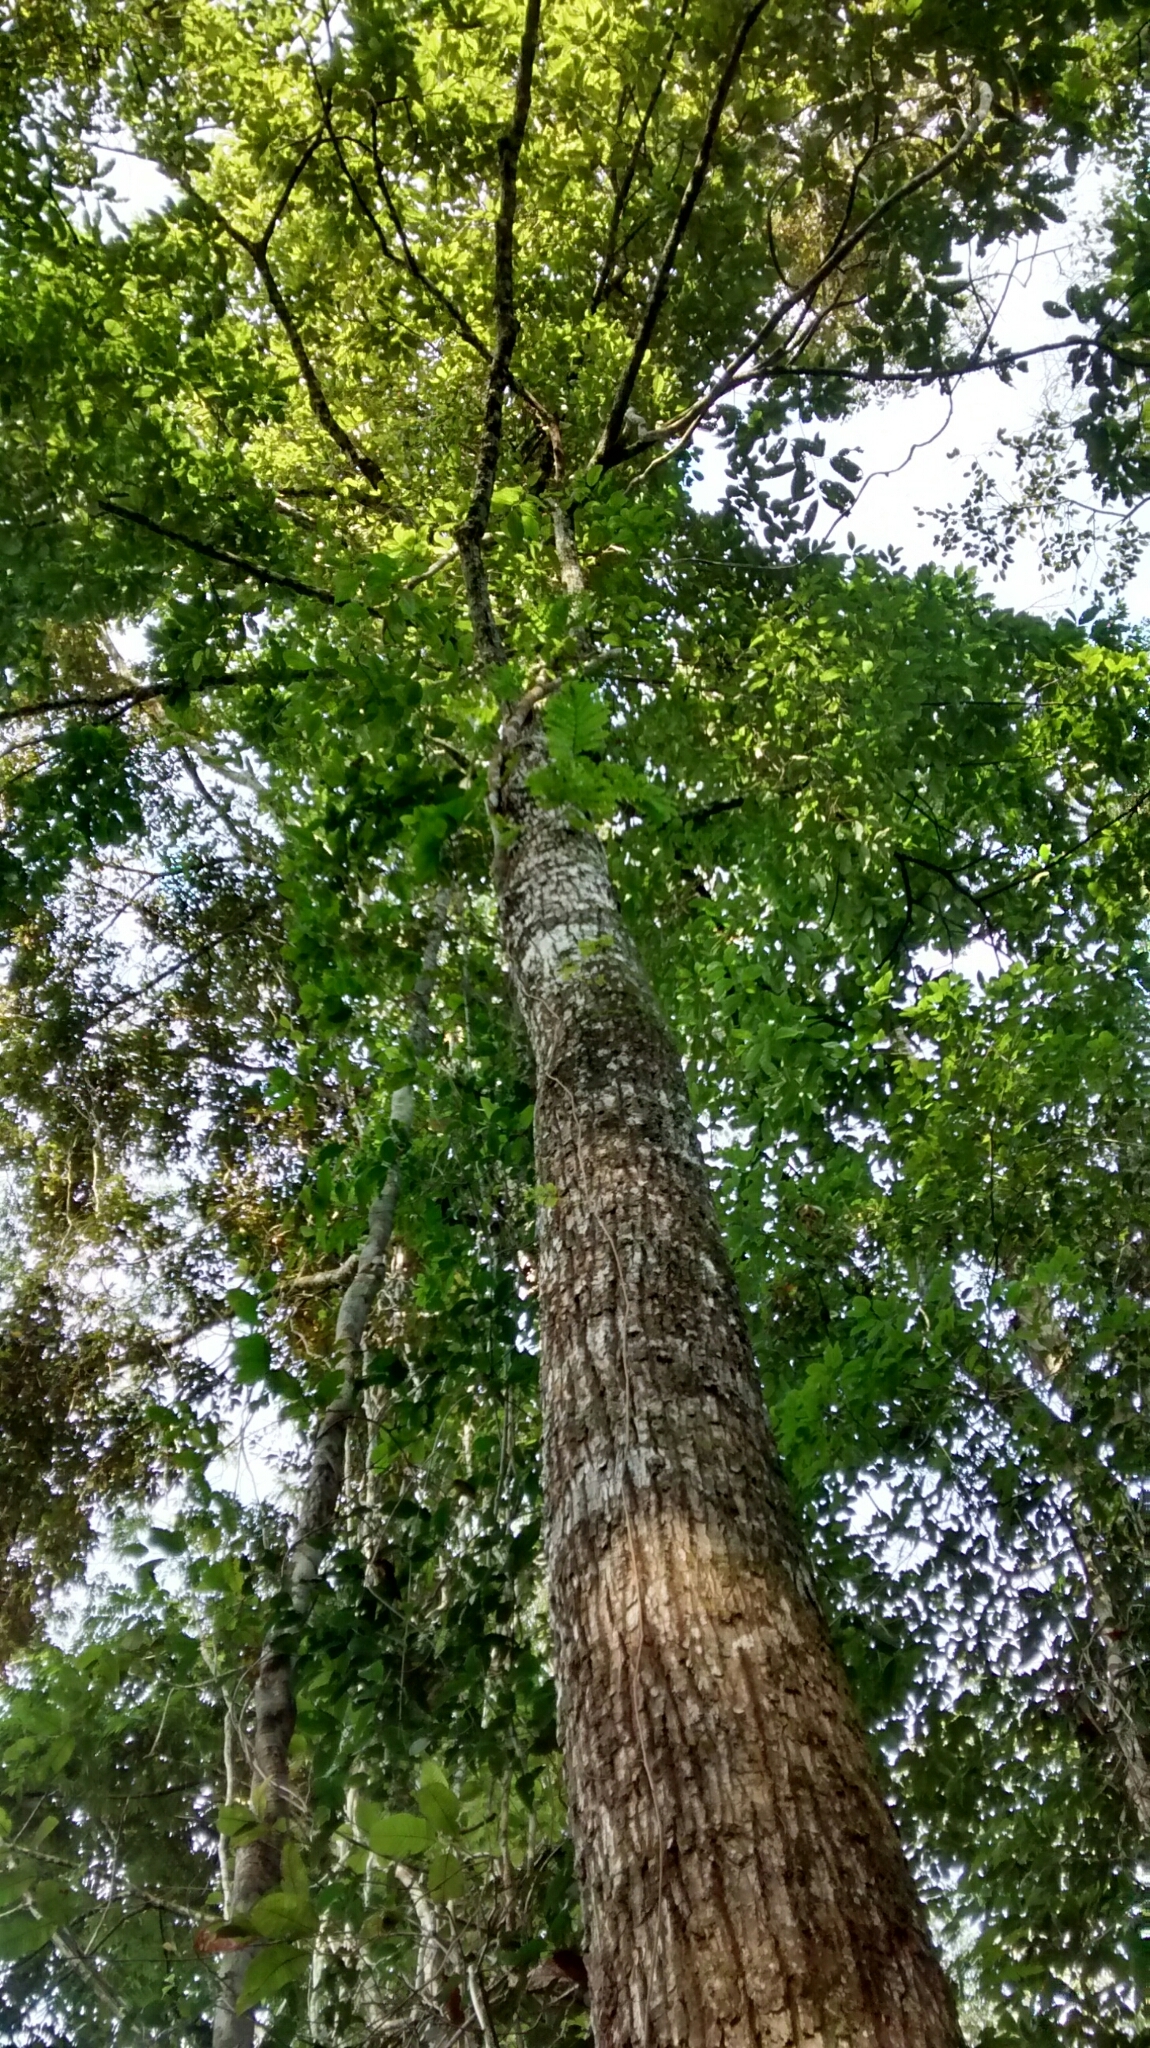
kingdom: Plantae
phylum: Tracheophyta
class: Magnoliopsida
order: Ericales
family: Lecythidaceae
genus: Lecythis
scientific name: Lecythis mesophylla
